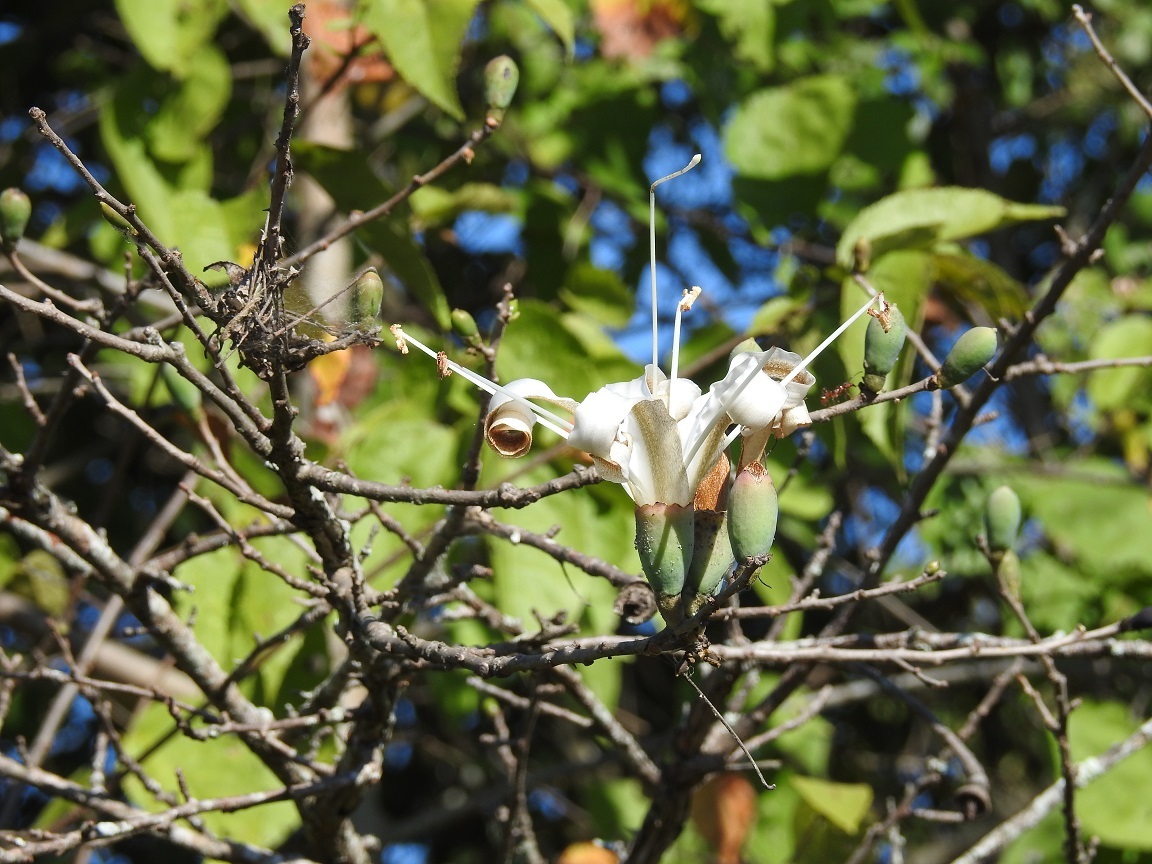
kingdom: Plantae
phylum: Tracheophyta
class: Magnoliopsida
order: Malvales
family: Malvaceae
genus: Ceiba
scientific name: Ceiba aesculifolia
